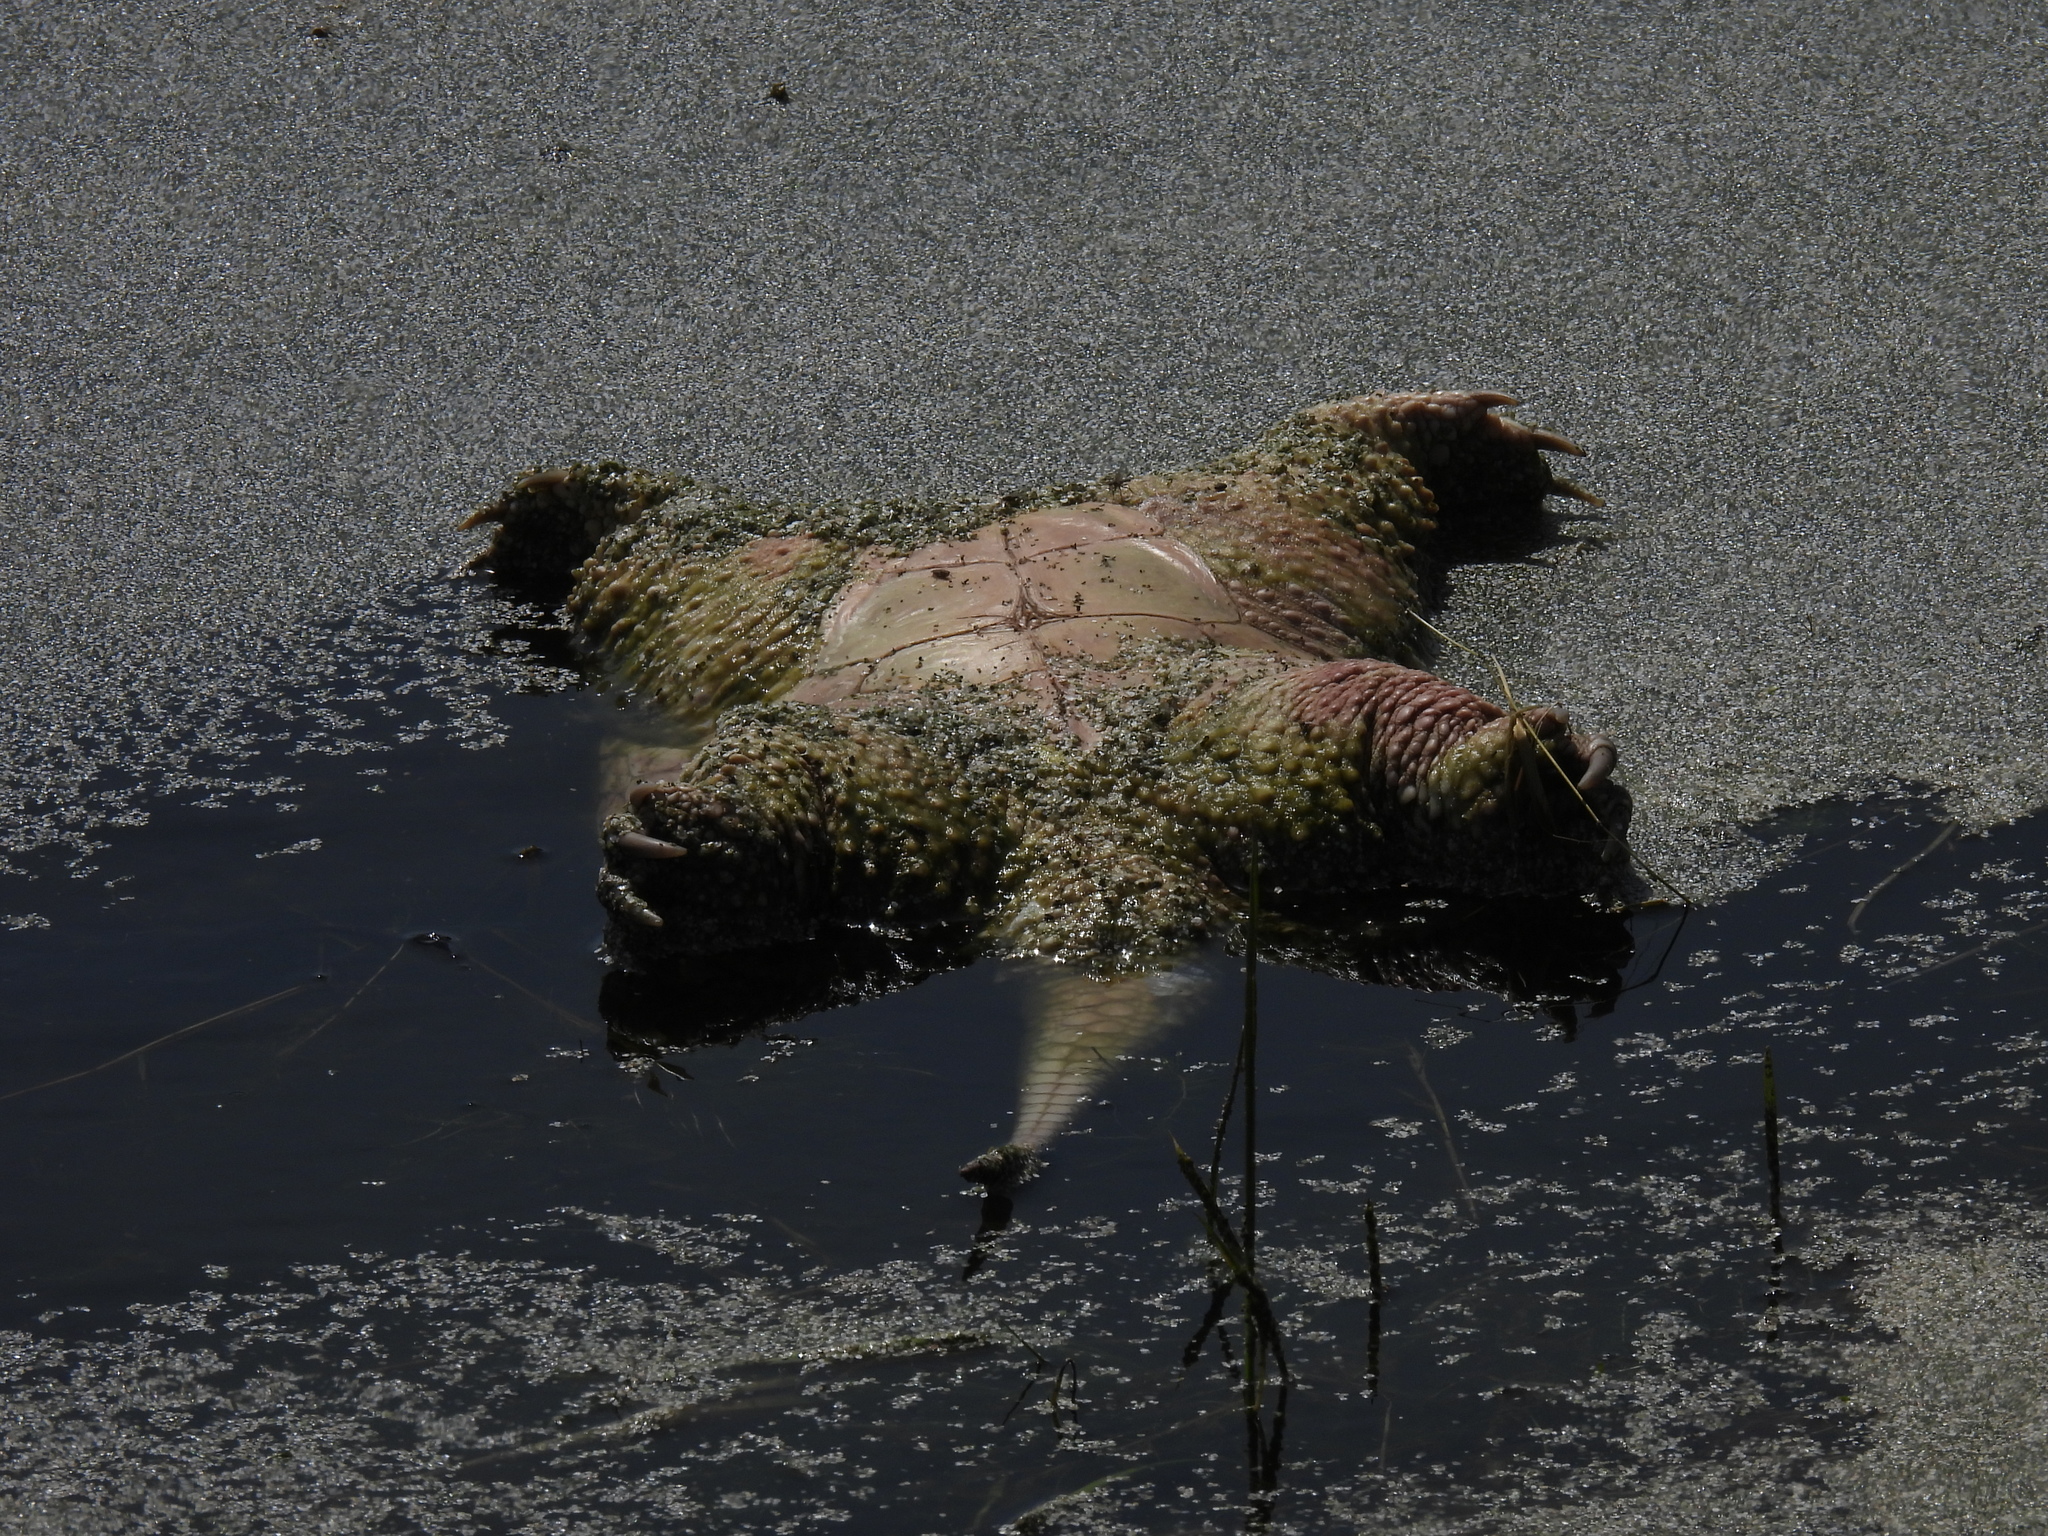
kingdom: Animalia
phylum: Chordata
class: Testudines
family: Chelydridae
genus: Chelydra
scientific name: Chelydra serpentina
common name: Common snapping turtle
